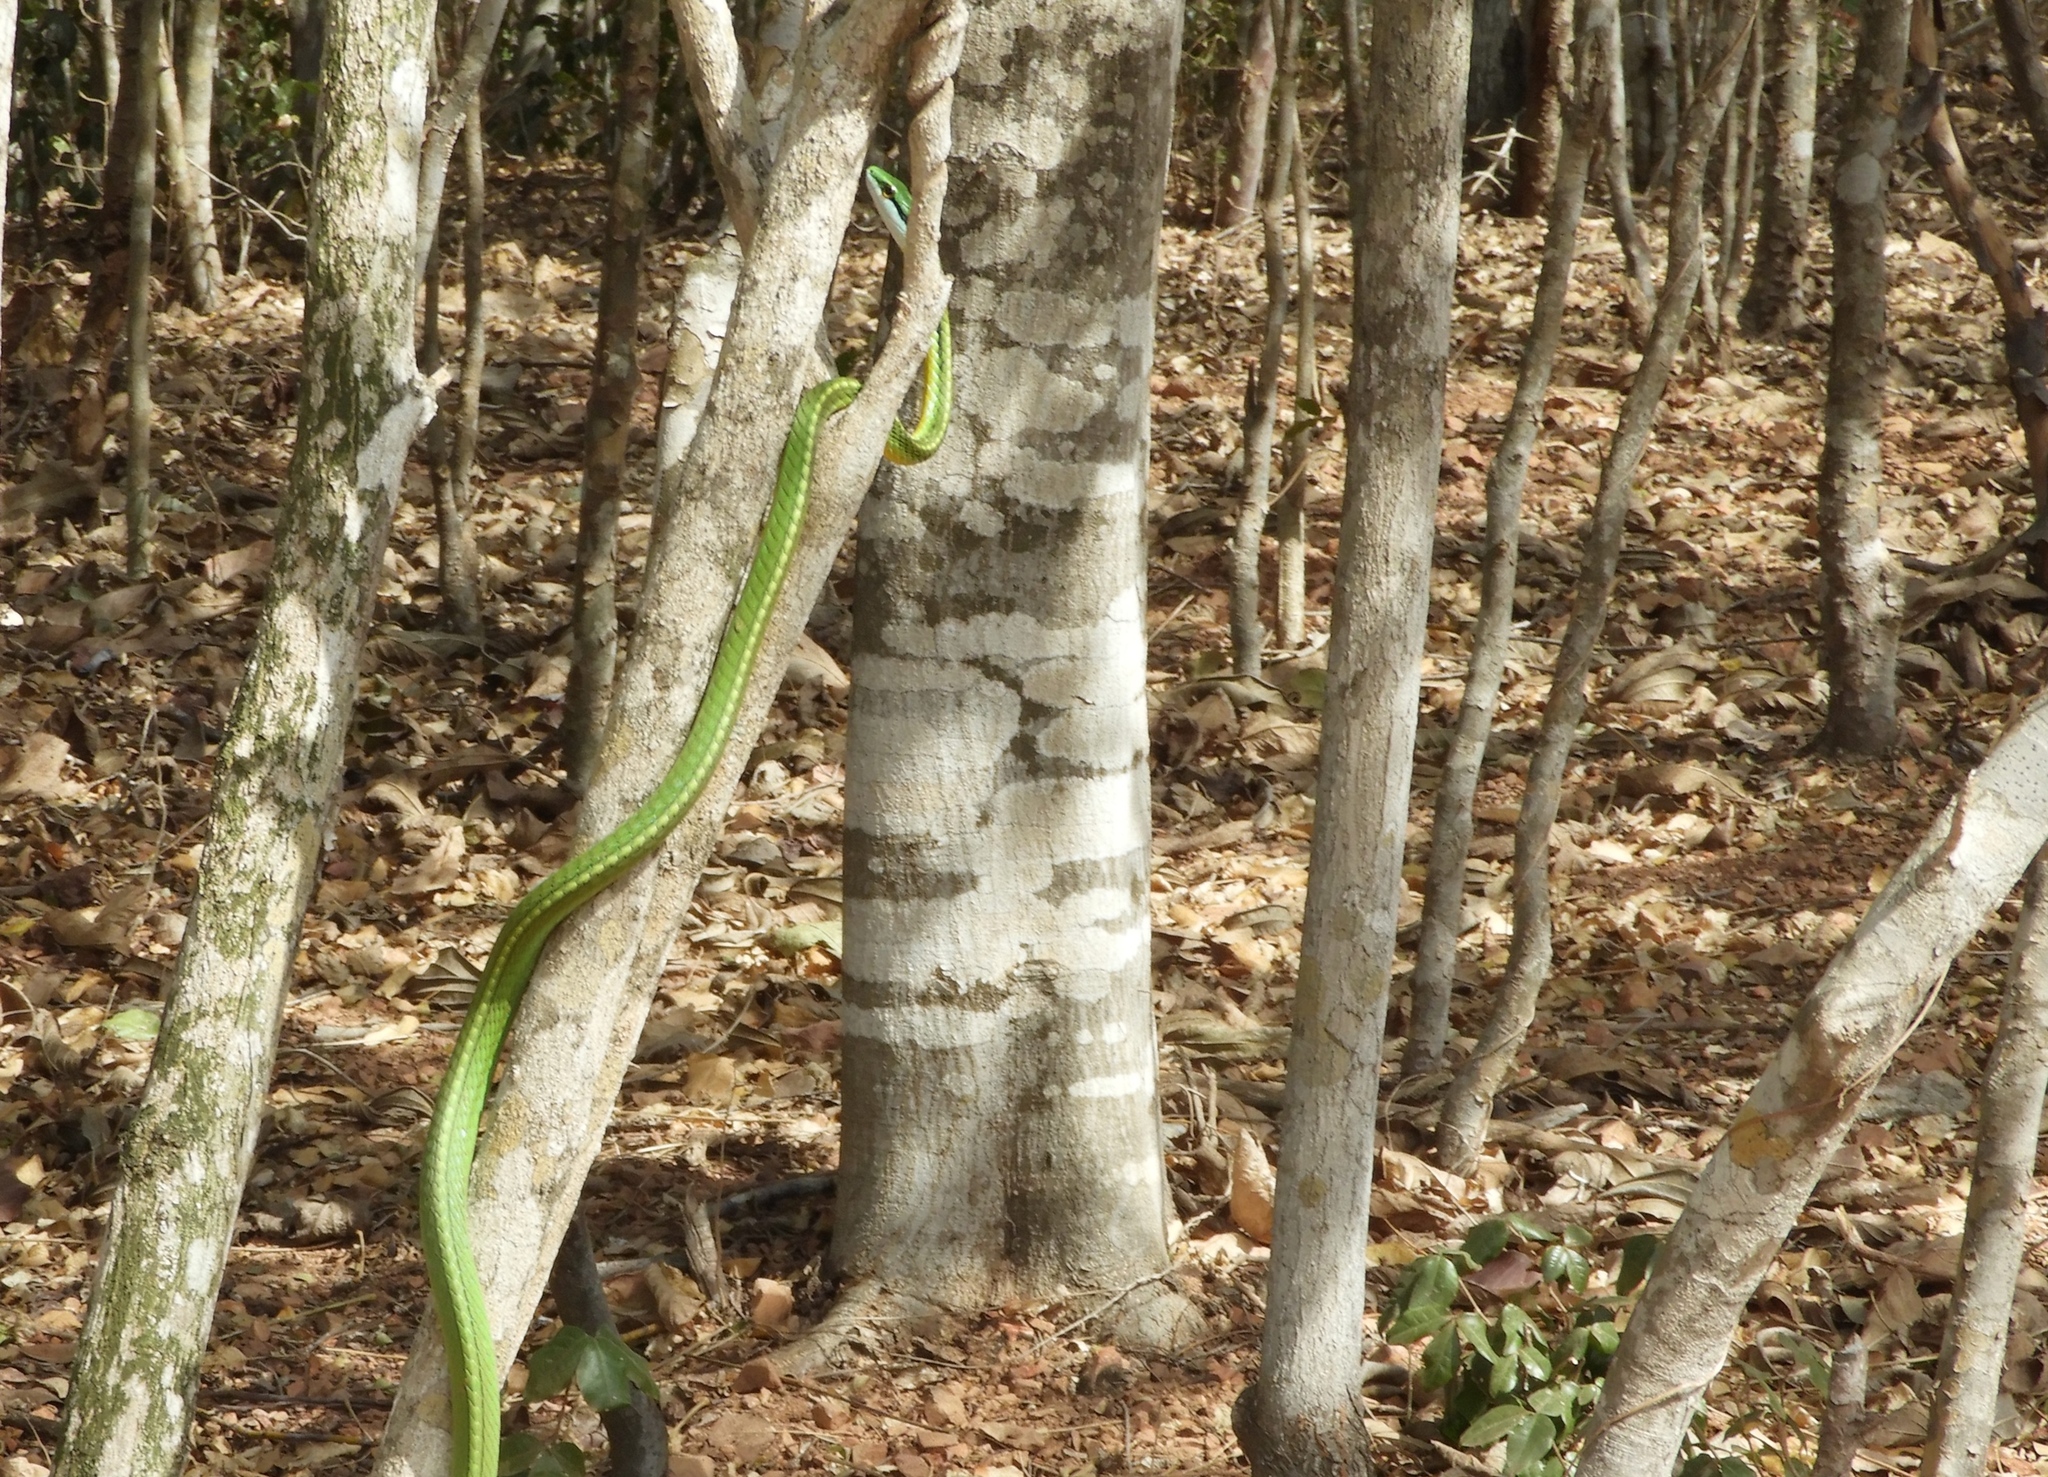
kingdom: Animalia
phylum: Chordata
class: Squamata
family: Colubridae
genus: Leptophis
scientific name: Leptophis diplotropis
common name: Pacific coast parrot snake
